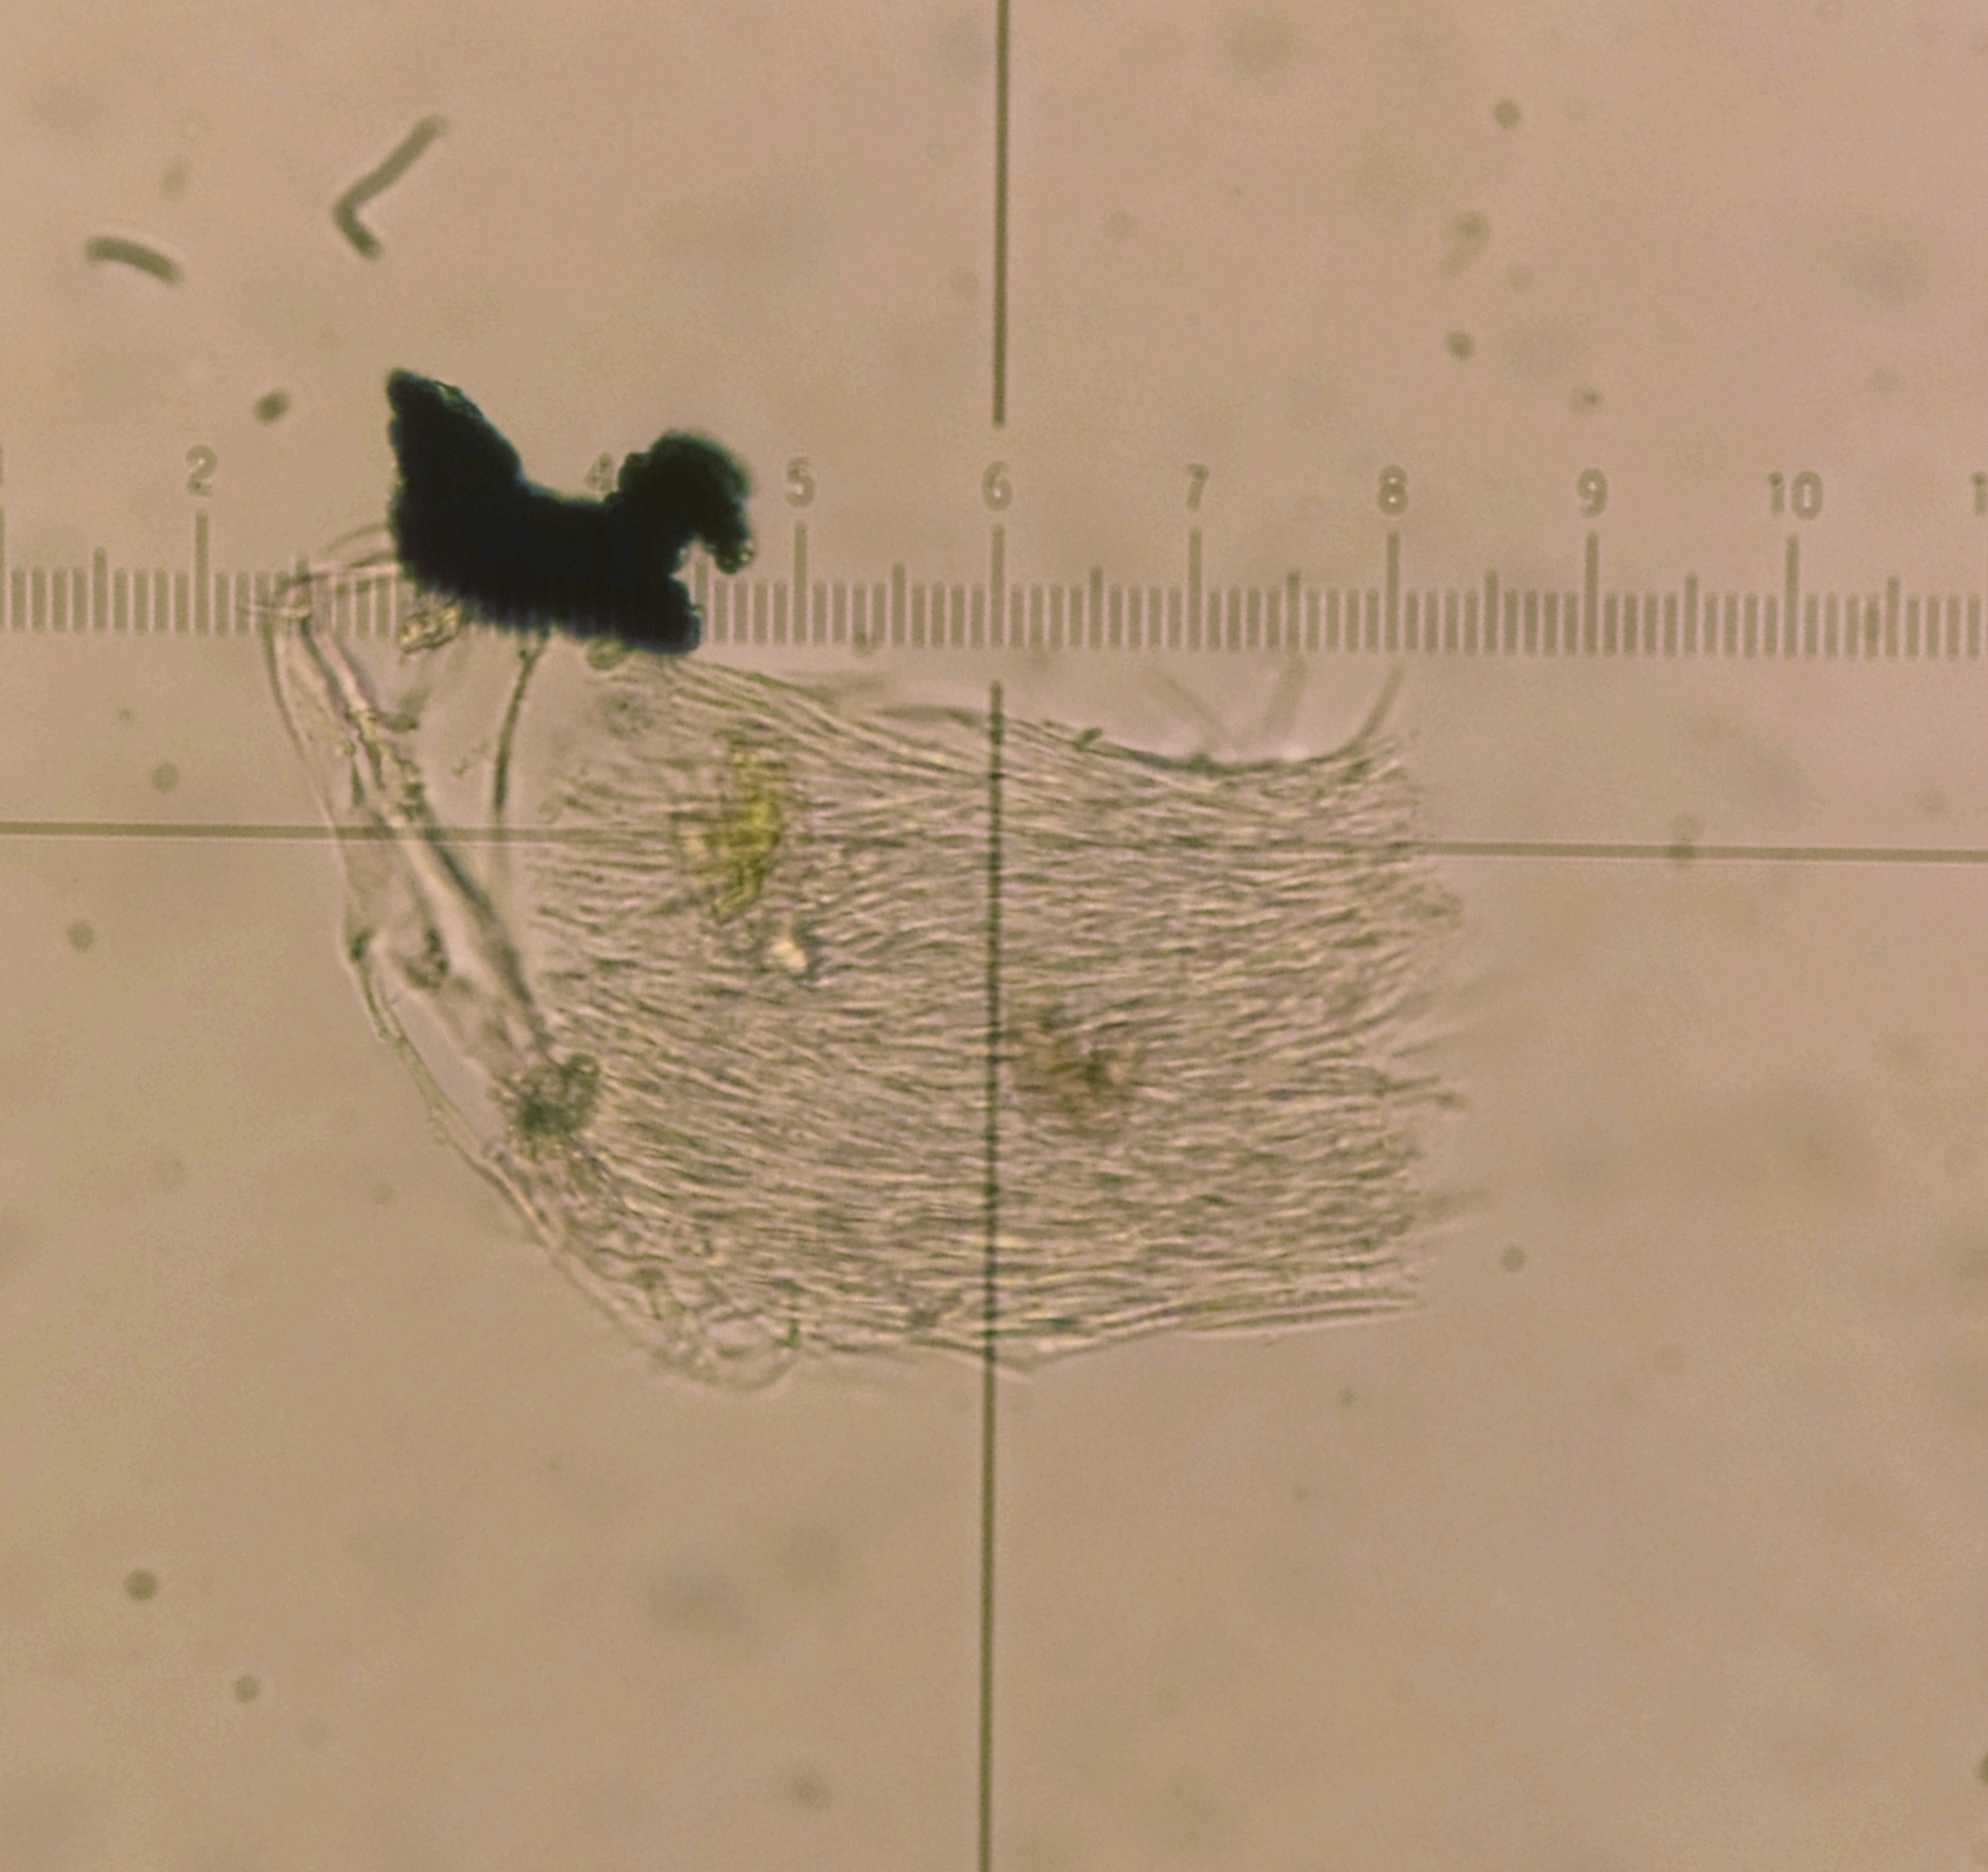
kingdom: Fungi
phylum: Ascomycota
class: Dothideomycetes
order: Mycosphaerellales
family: Mycosphaerellaceae
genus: Septoria
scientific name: Septoria veronicae
